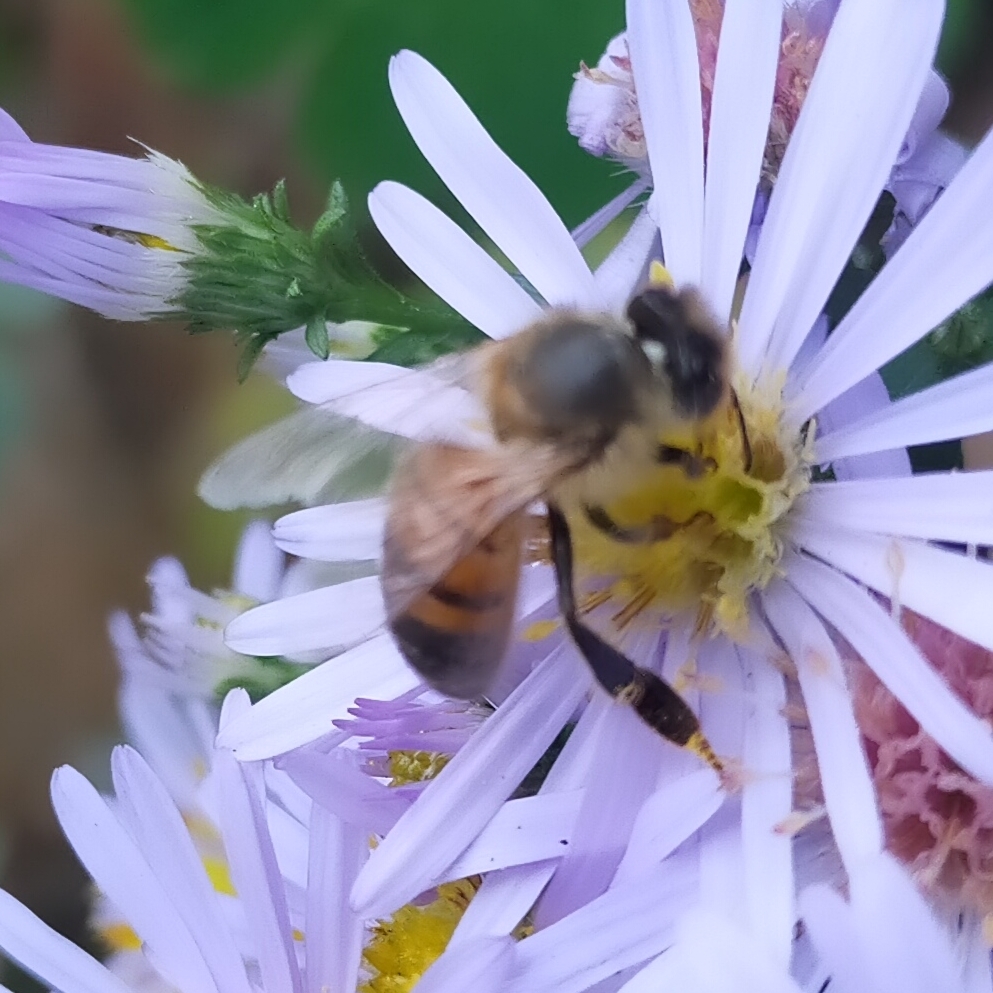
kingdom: Animalia
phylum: Arthropoda
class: Insecta
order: Hymenoptera
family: Apidae
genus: Apis
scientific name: Apis mellifera
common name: Honey bee
